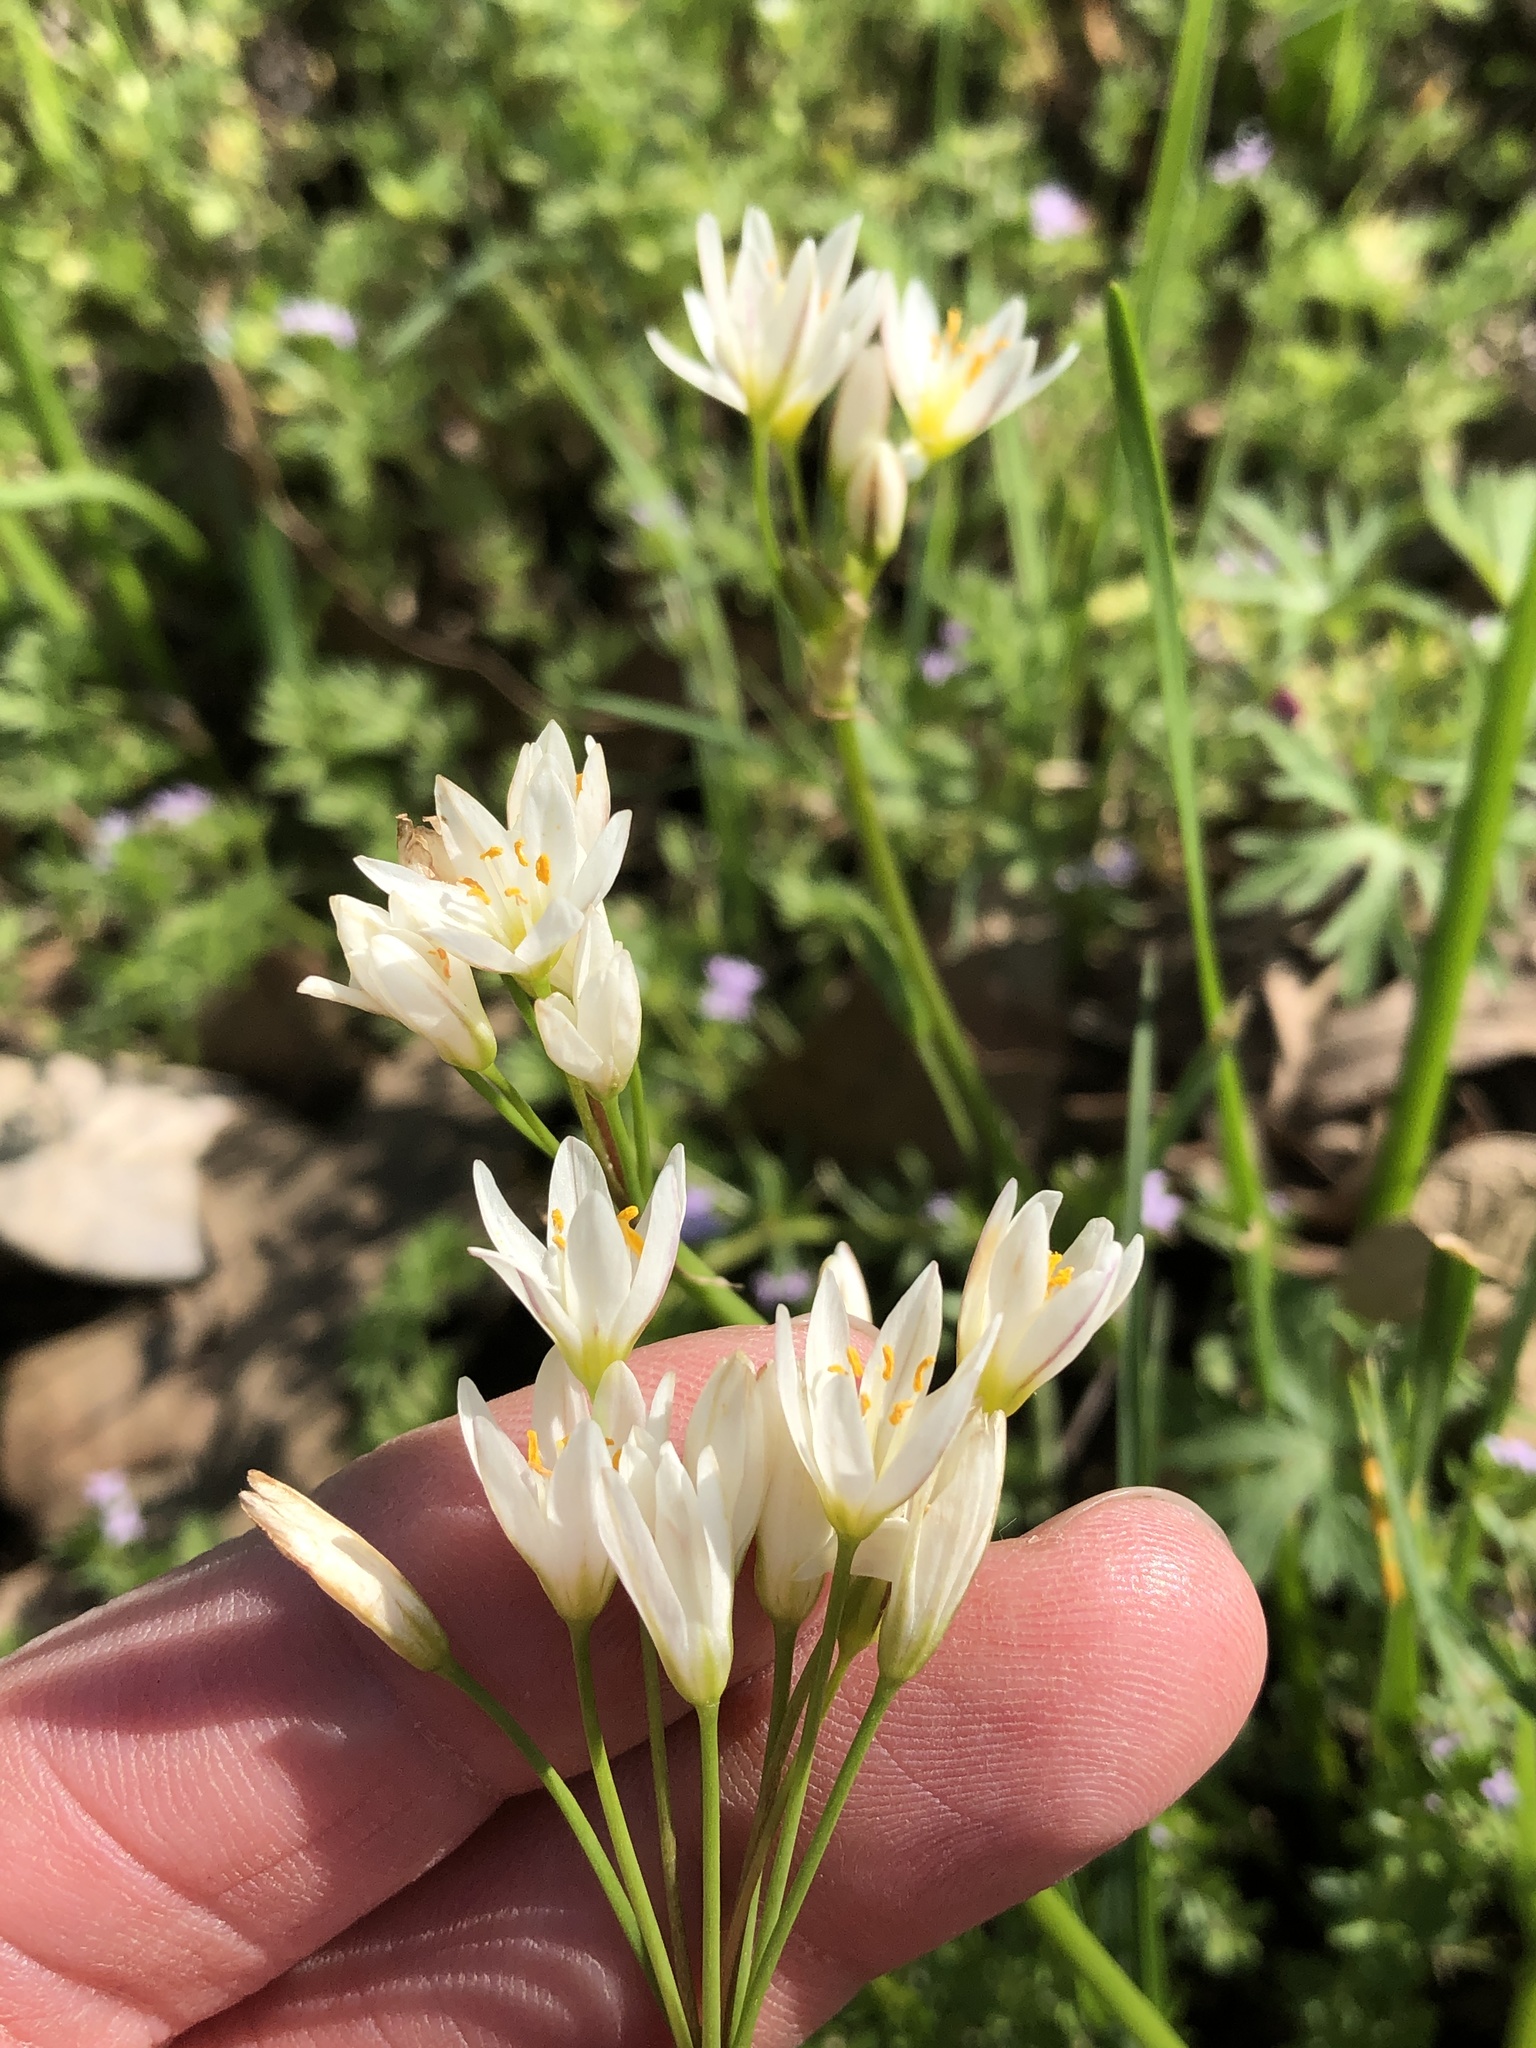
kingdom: Plantae
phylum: Tracheophyta
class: Liliopsida
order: Asparagales
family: Amaryllidaceae
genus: Nothoscordum
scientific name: Nothoscordum bivalve
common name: Crow-poison
